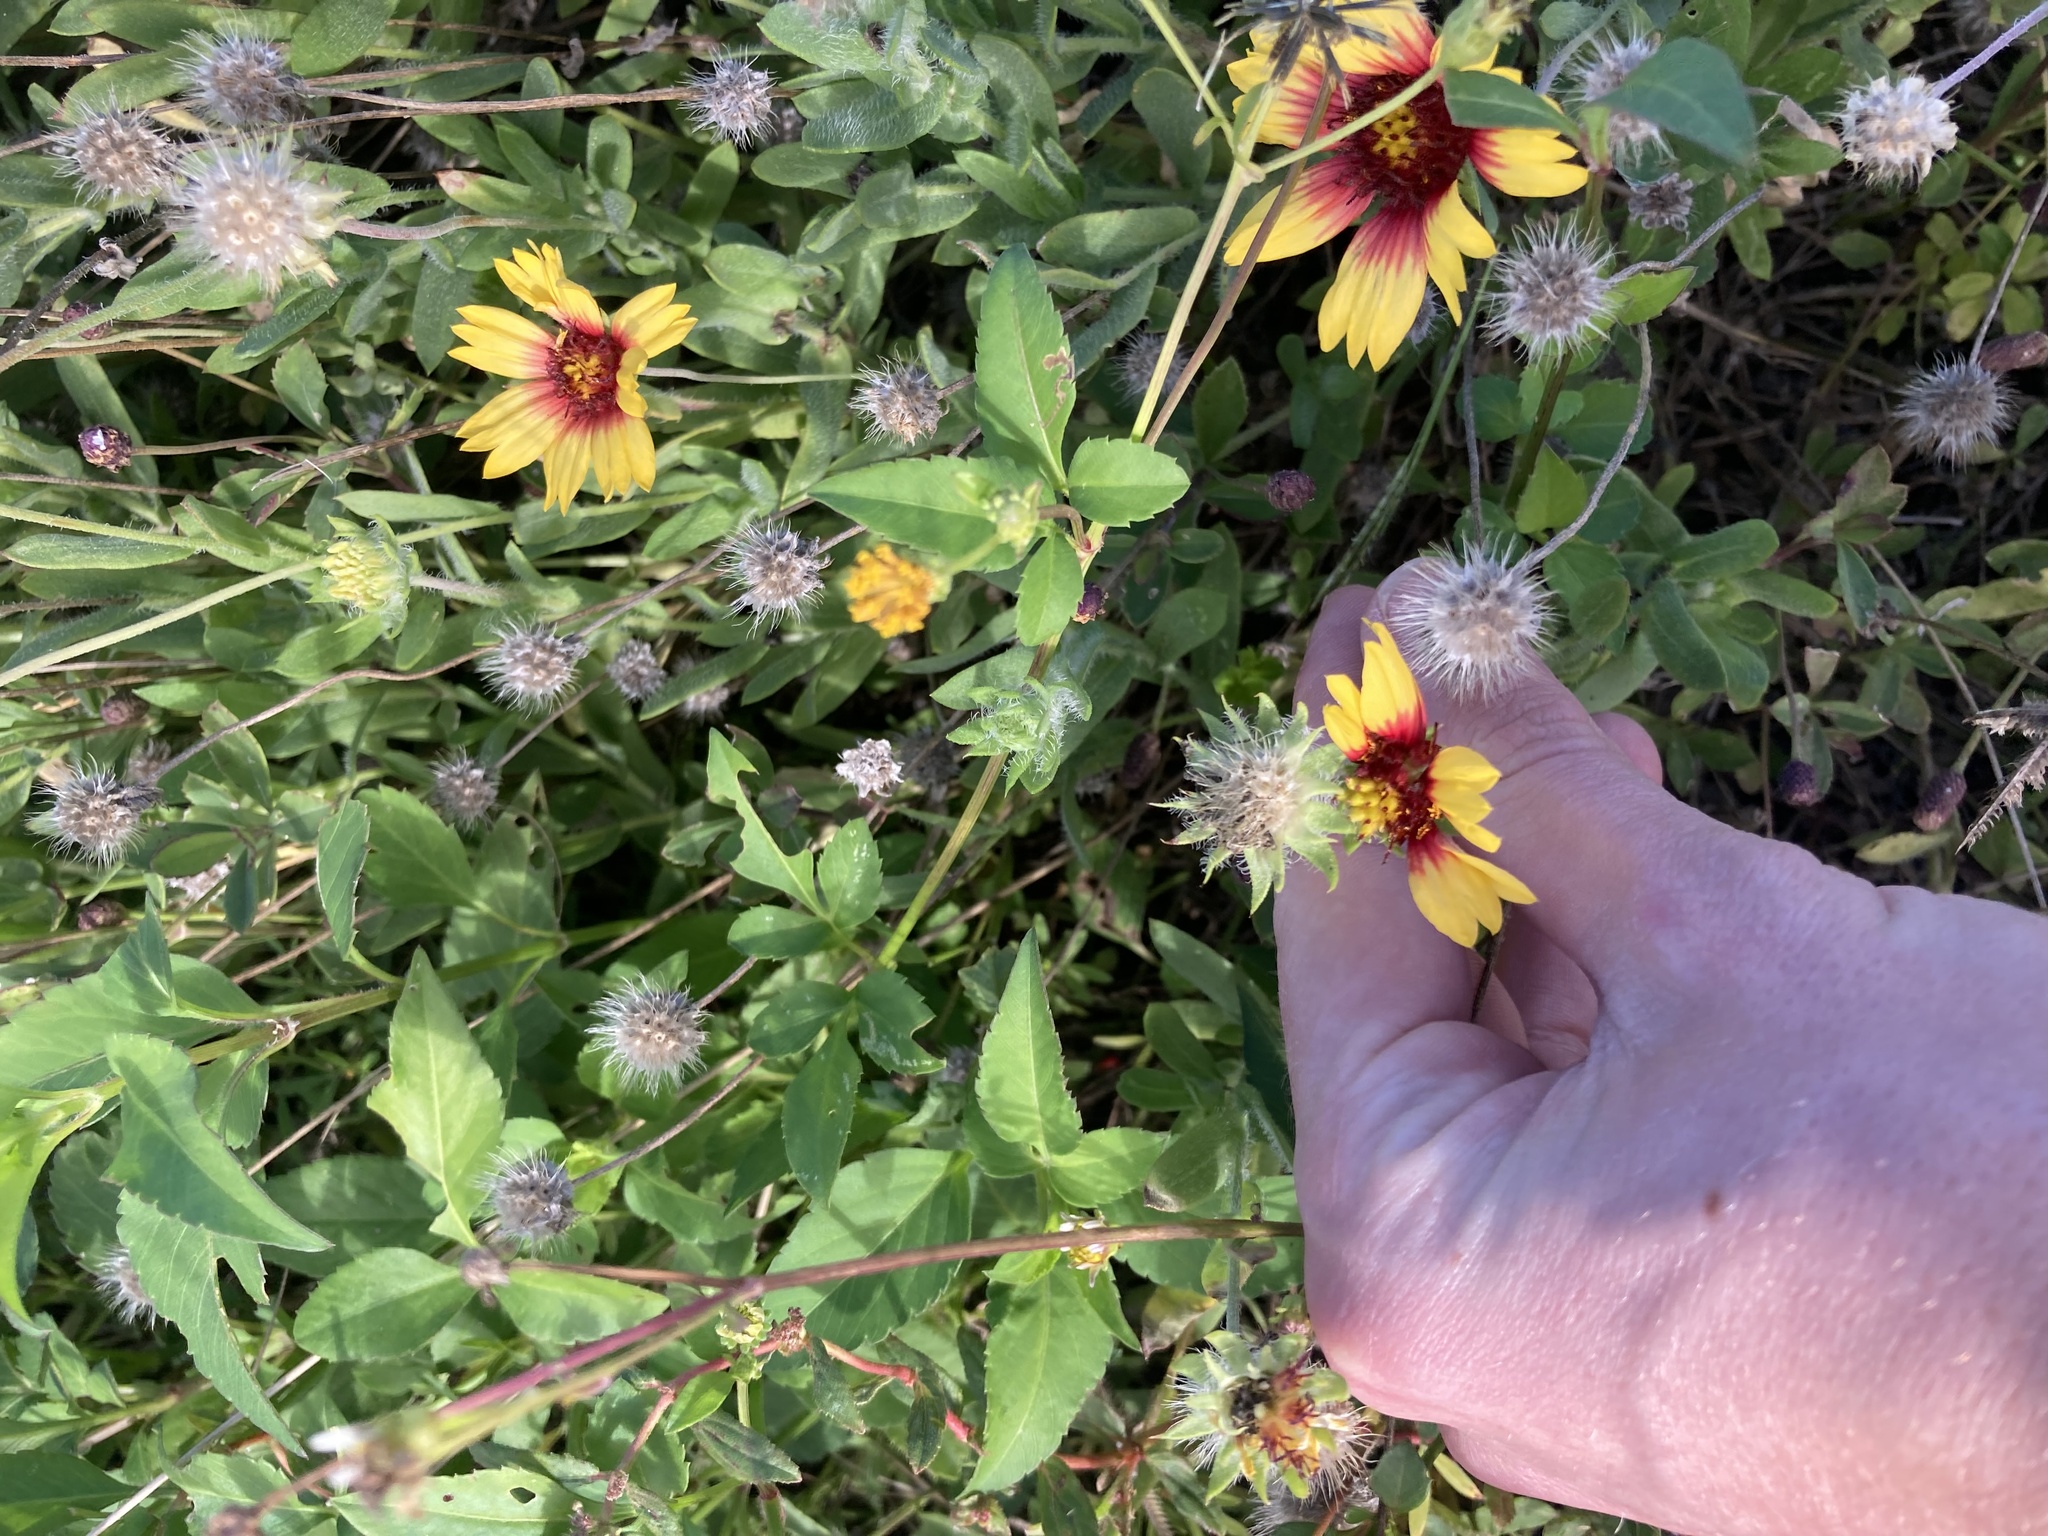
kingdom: Plantae
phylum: Tracheophyta
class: Magnoliopsida
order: Asterales
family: Asteraceae
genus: Gaillardia
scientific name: Gaillardia pulchella
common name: Firewheel
